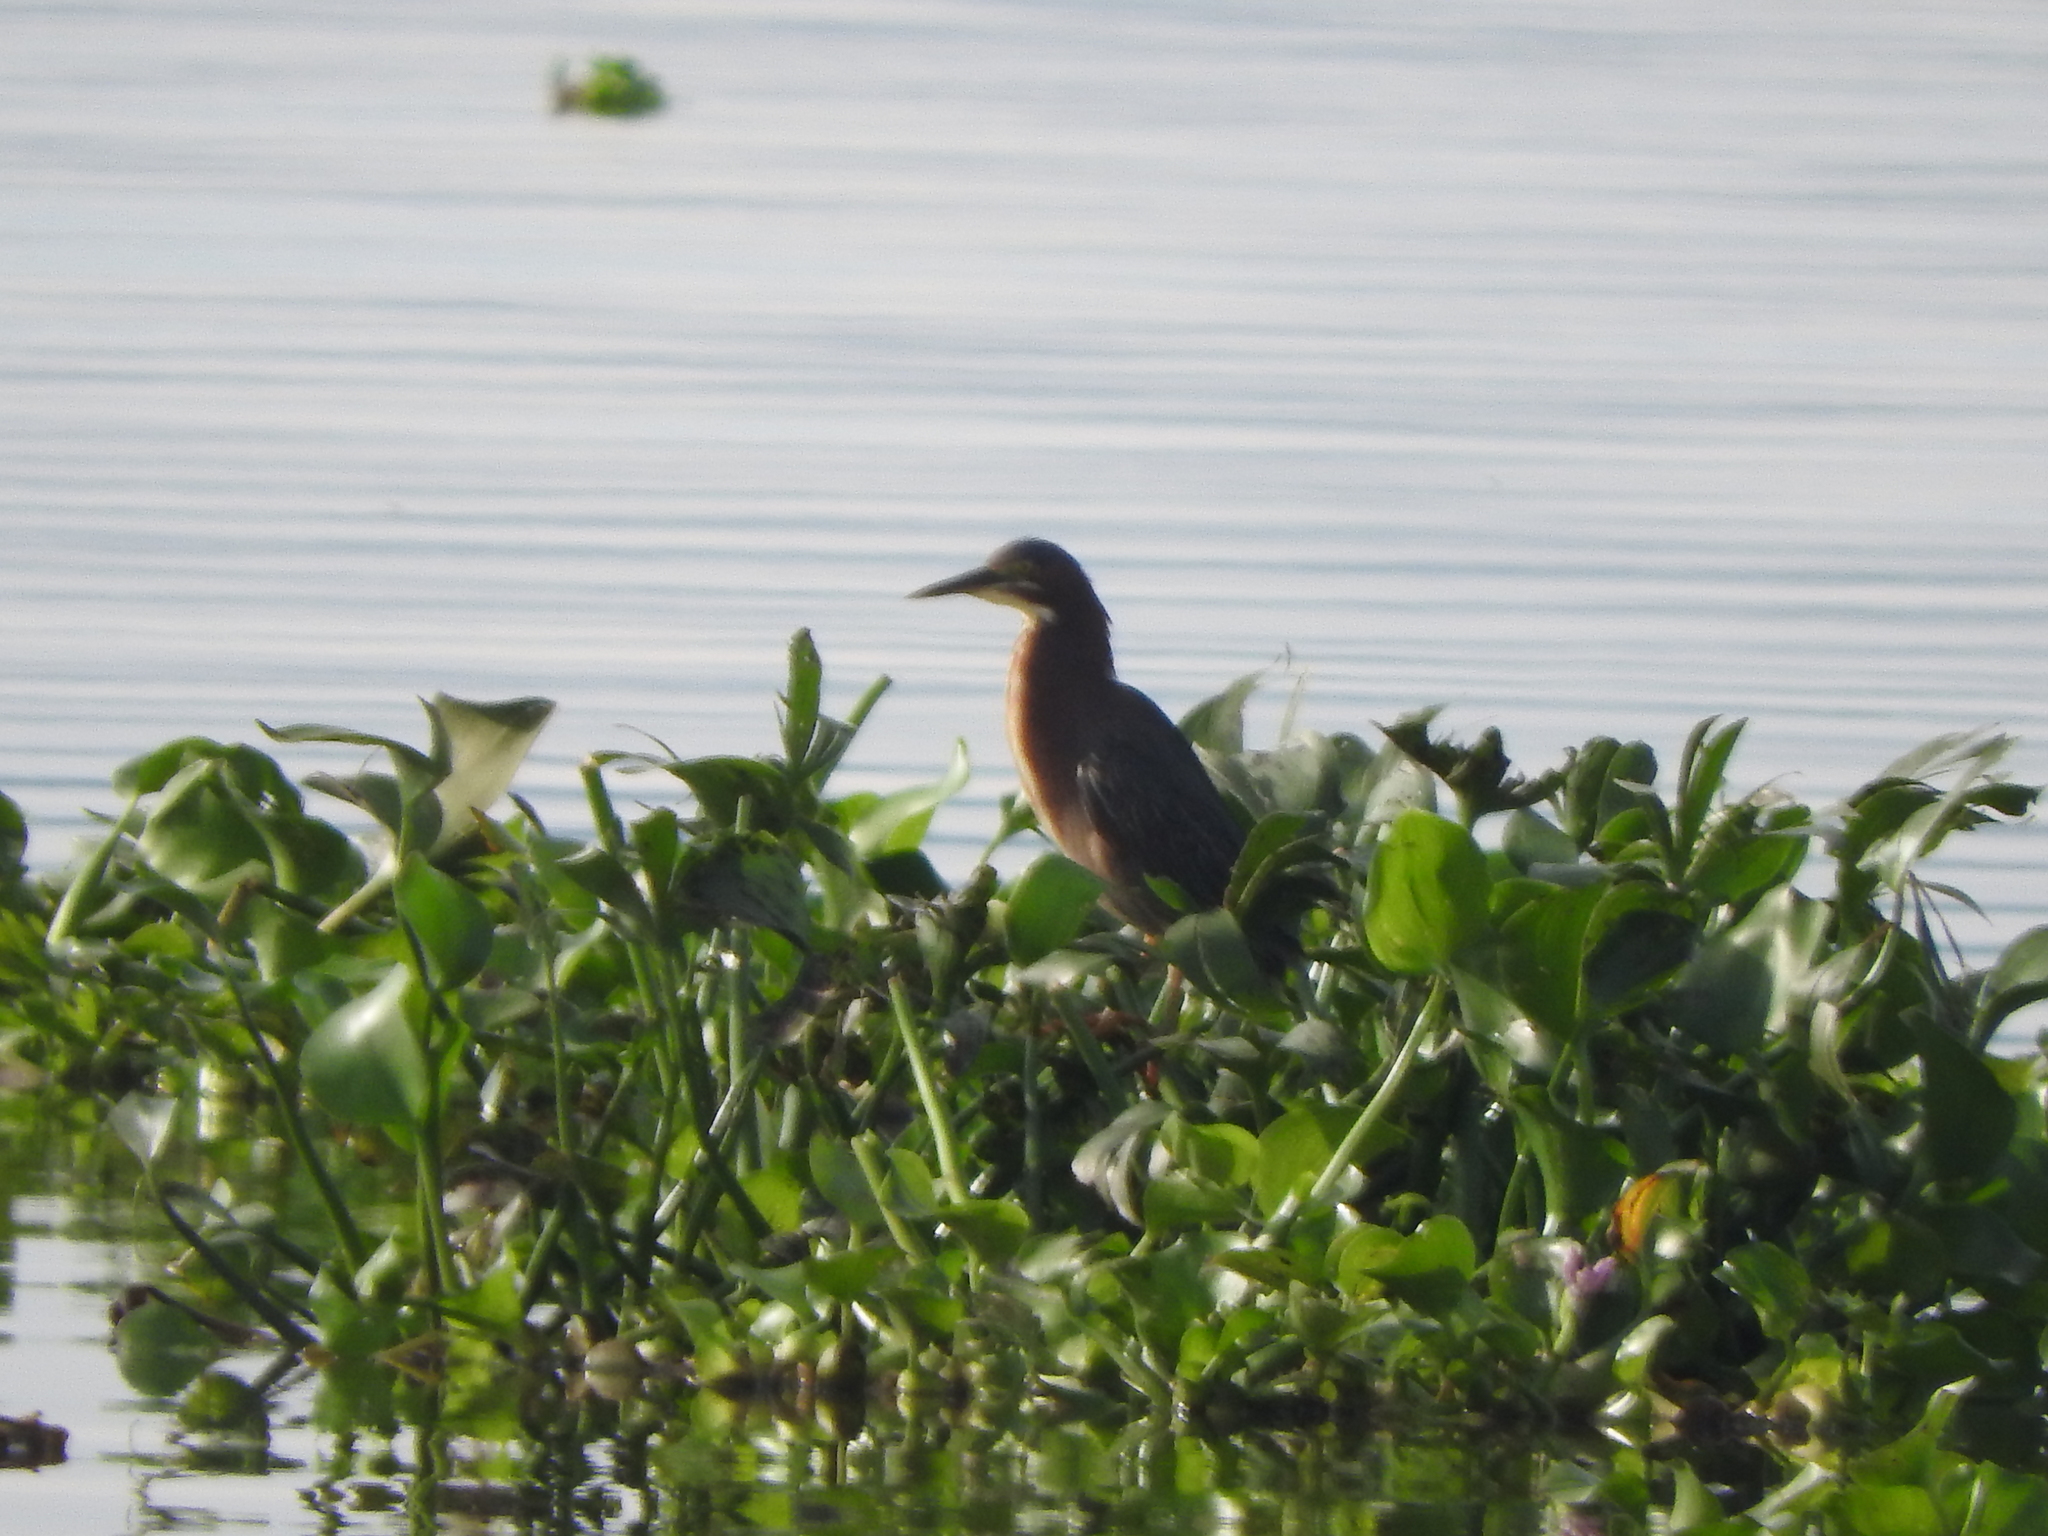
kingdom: Animalia
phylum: Chordata
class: Aves
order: Pelecaniformes
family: Ardeidae
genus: Butorides
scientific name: Butorides virescens
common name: Green heron
